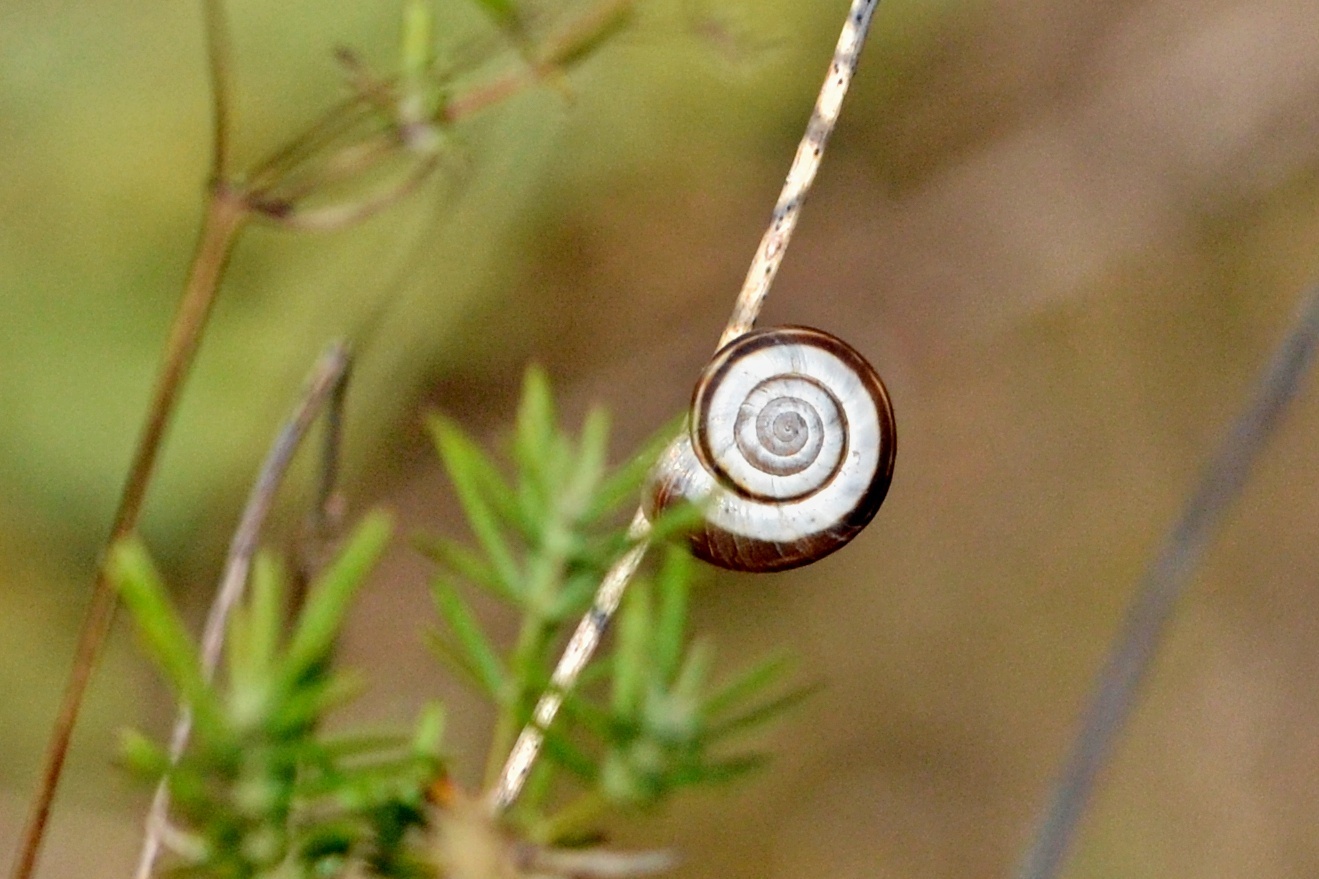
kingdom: Animalia
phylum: Mollusca
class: Gastropoda
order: Stylommatophora
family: Geomitridae
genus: Xerolenta
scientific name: Xerolenta obvia
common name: White heath snail
